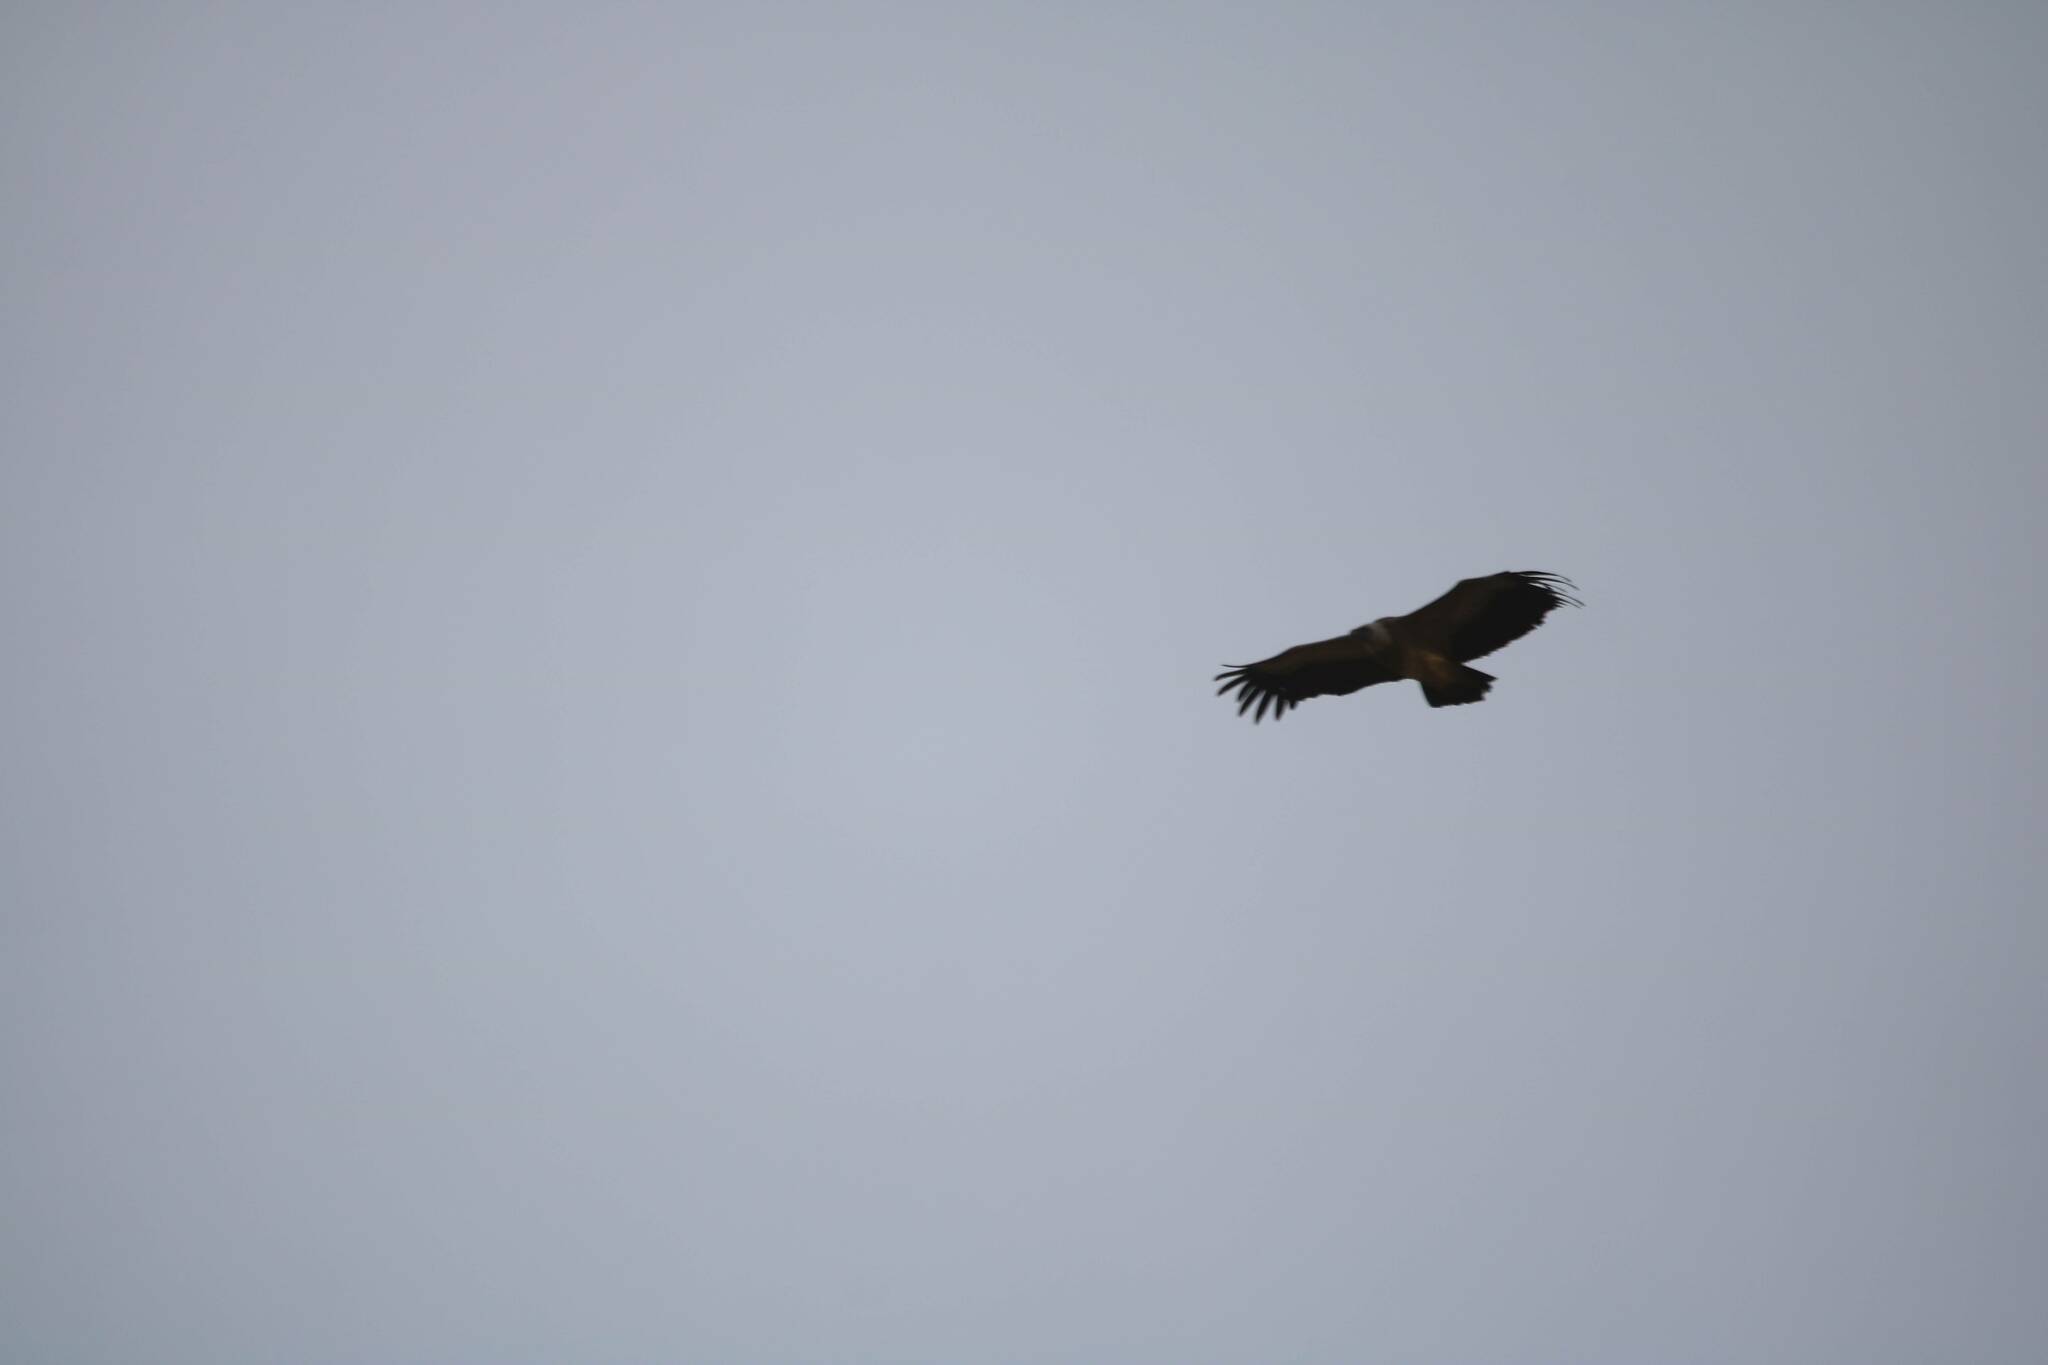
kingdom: Animalia
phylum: Chordata
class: Aves
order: Accipitriformes
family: Accipitridae
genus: Gyps
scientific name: Gyps fulvus
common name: Griffon vulture
